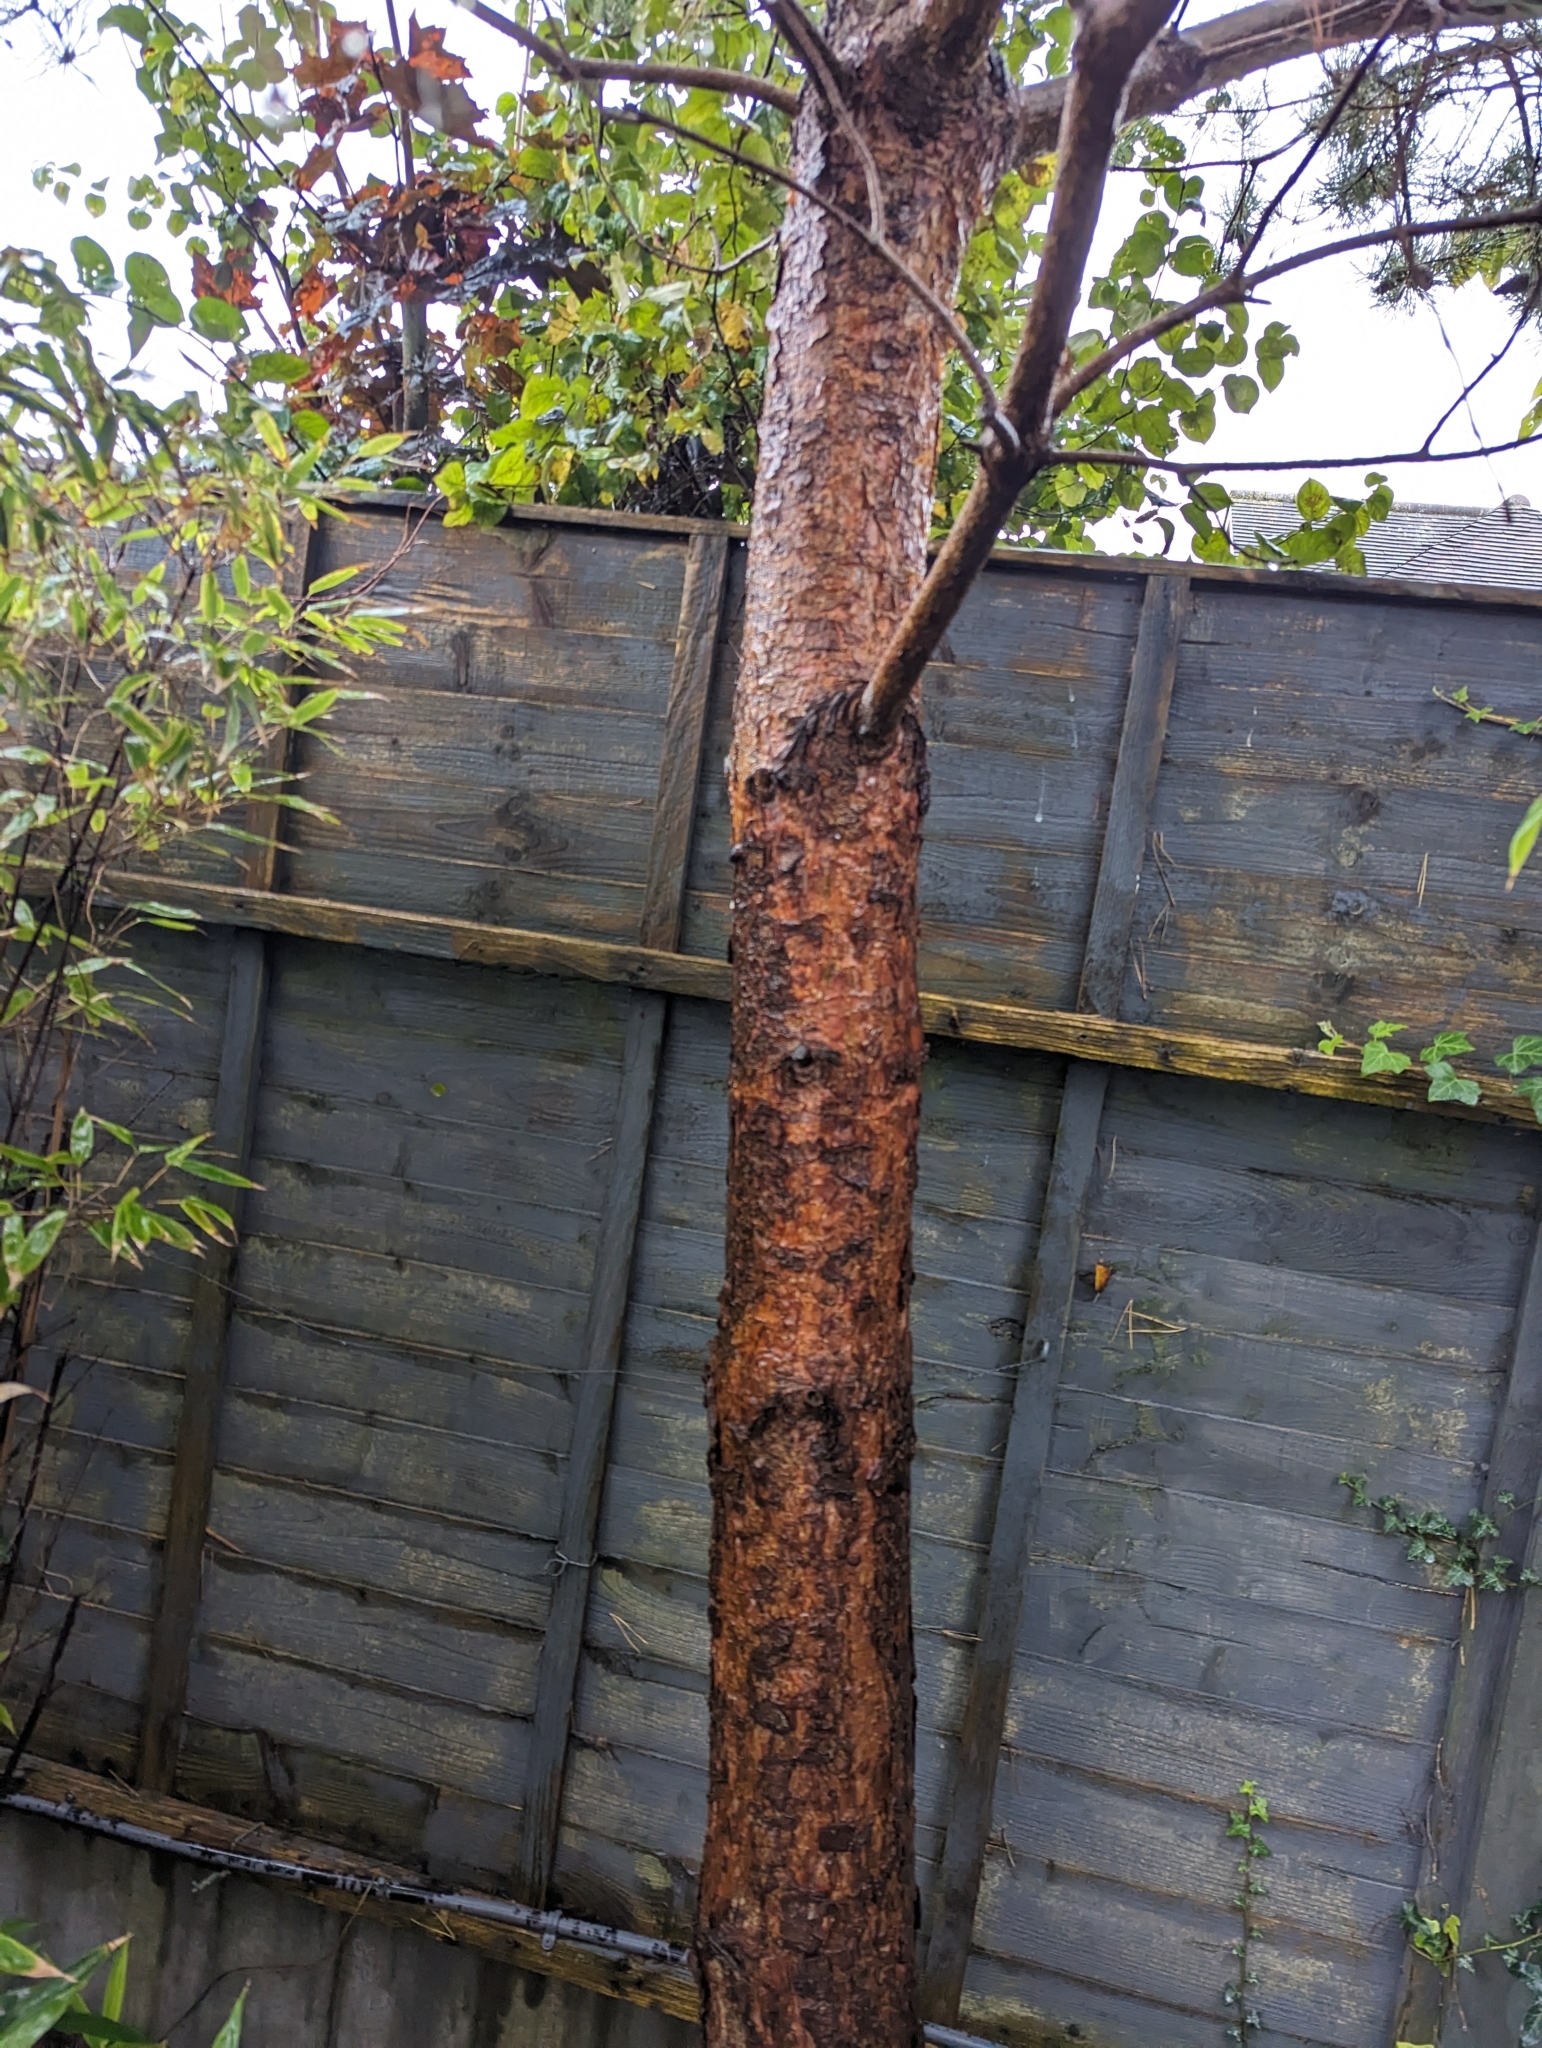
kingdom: Plantae
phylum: Tracheophyta
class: Pinopsida
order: Pinales
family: Pinaceae
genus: Pinus
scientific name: Pinus sylvestris
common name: Scots pine
